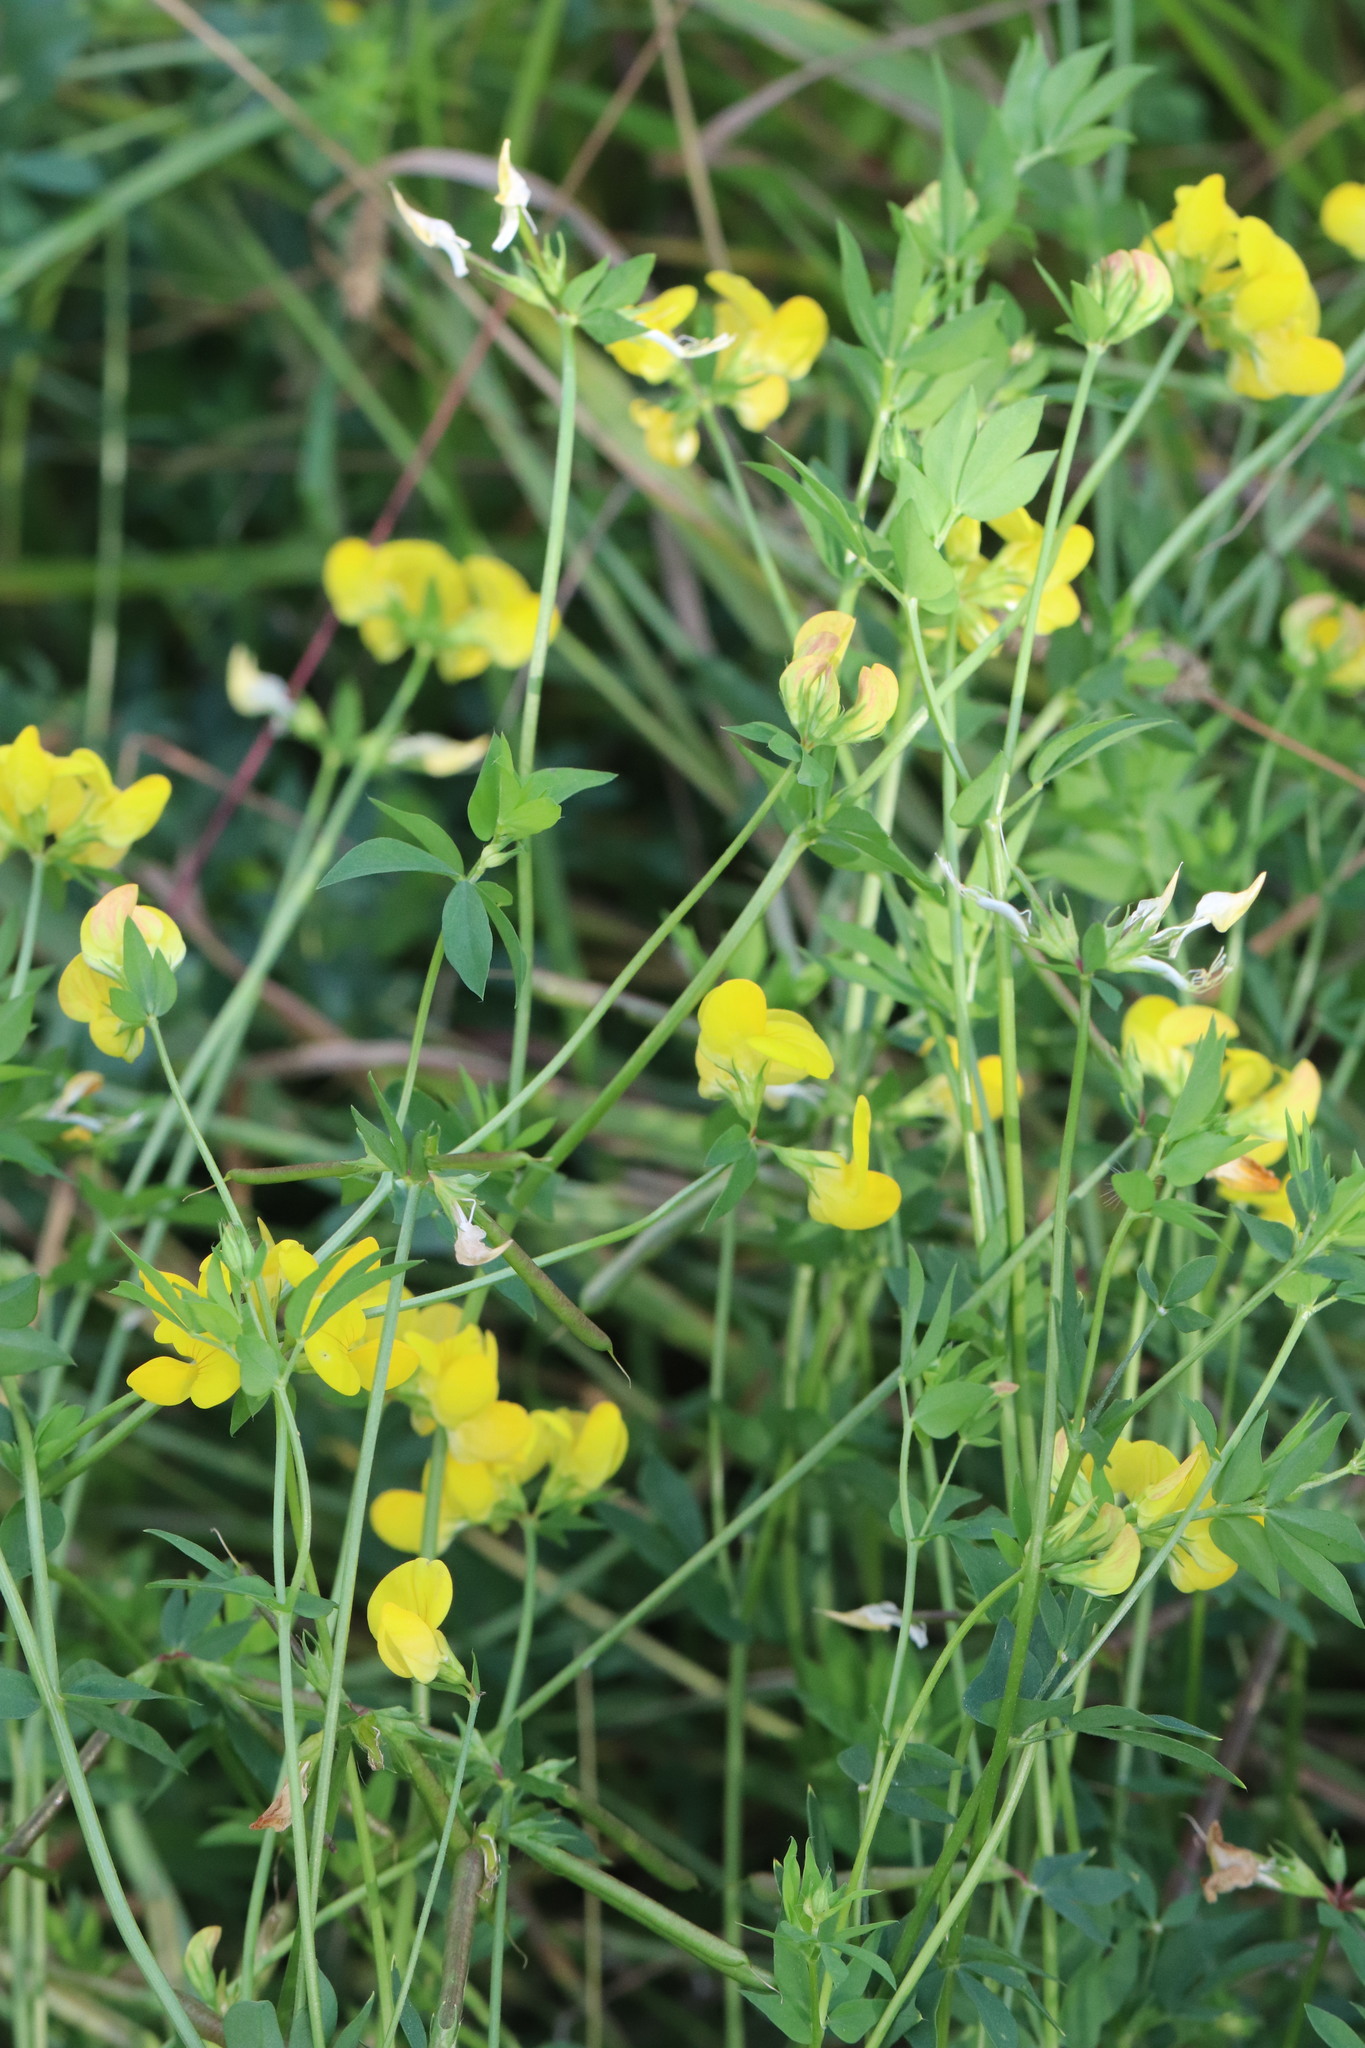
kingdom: Plantae
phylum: Tracheophyta
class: Magnoliopsida
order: Fabales
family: Fabaceae
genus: Lotus
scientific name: Lotus corniculatus
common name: Common bird's-foot-trefoil
